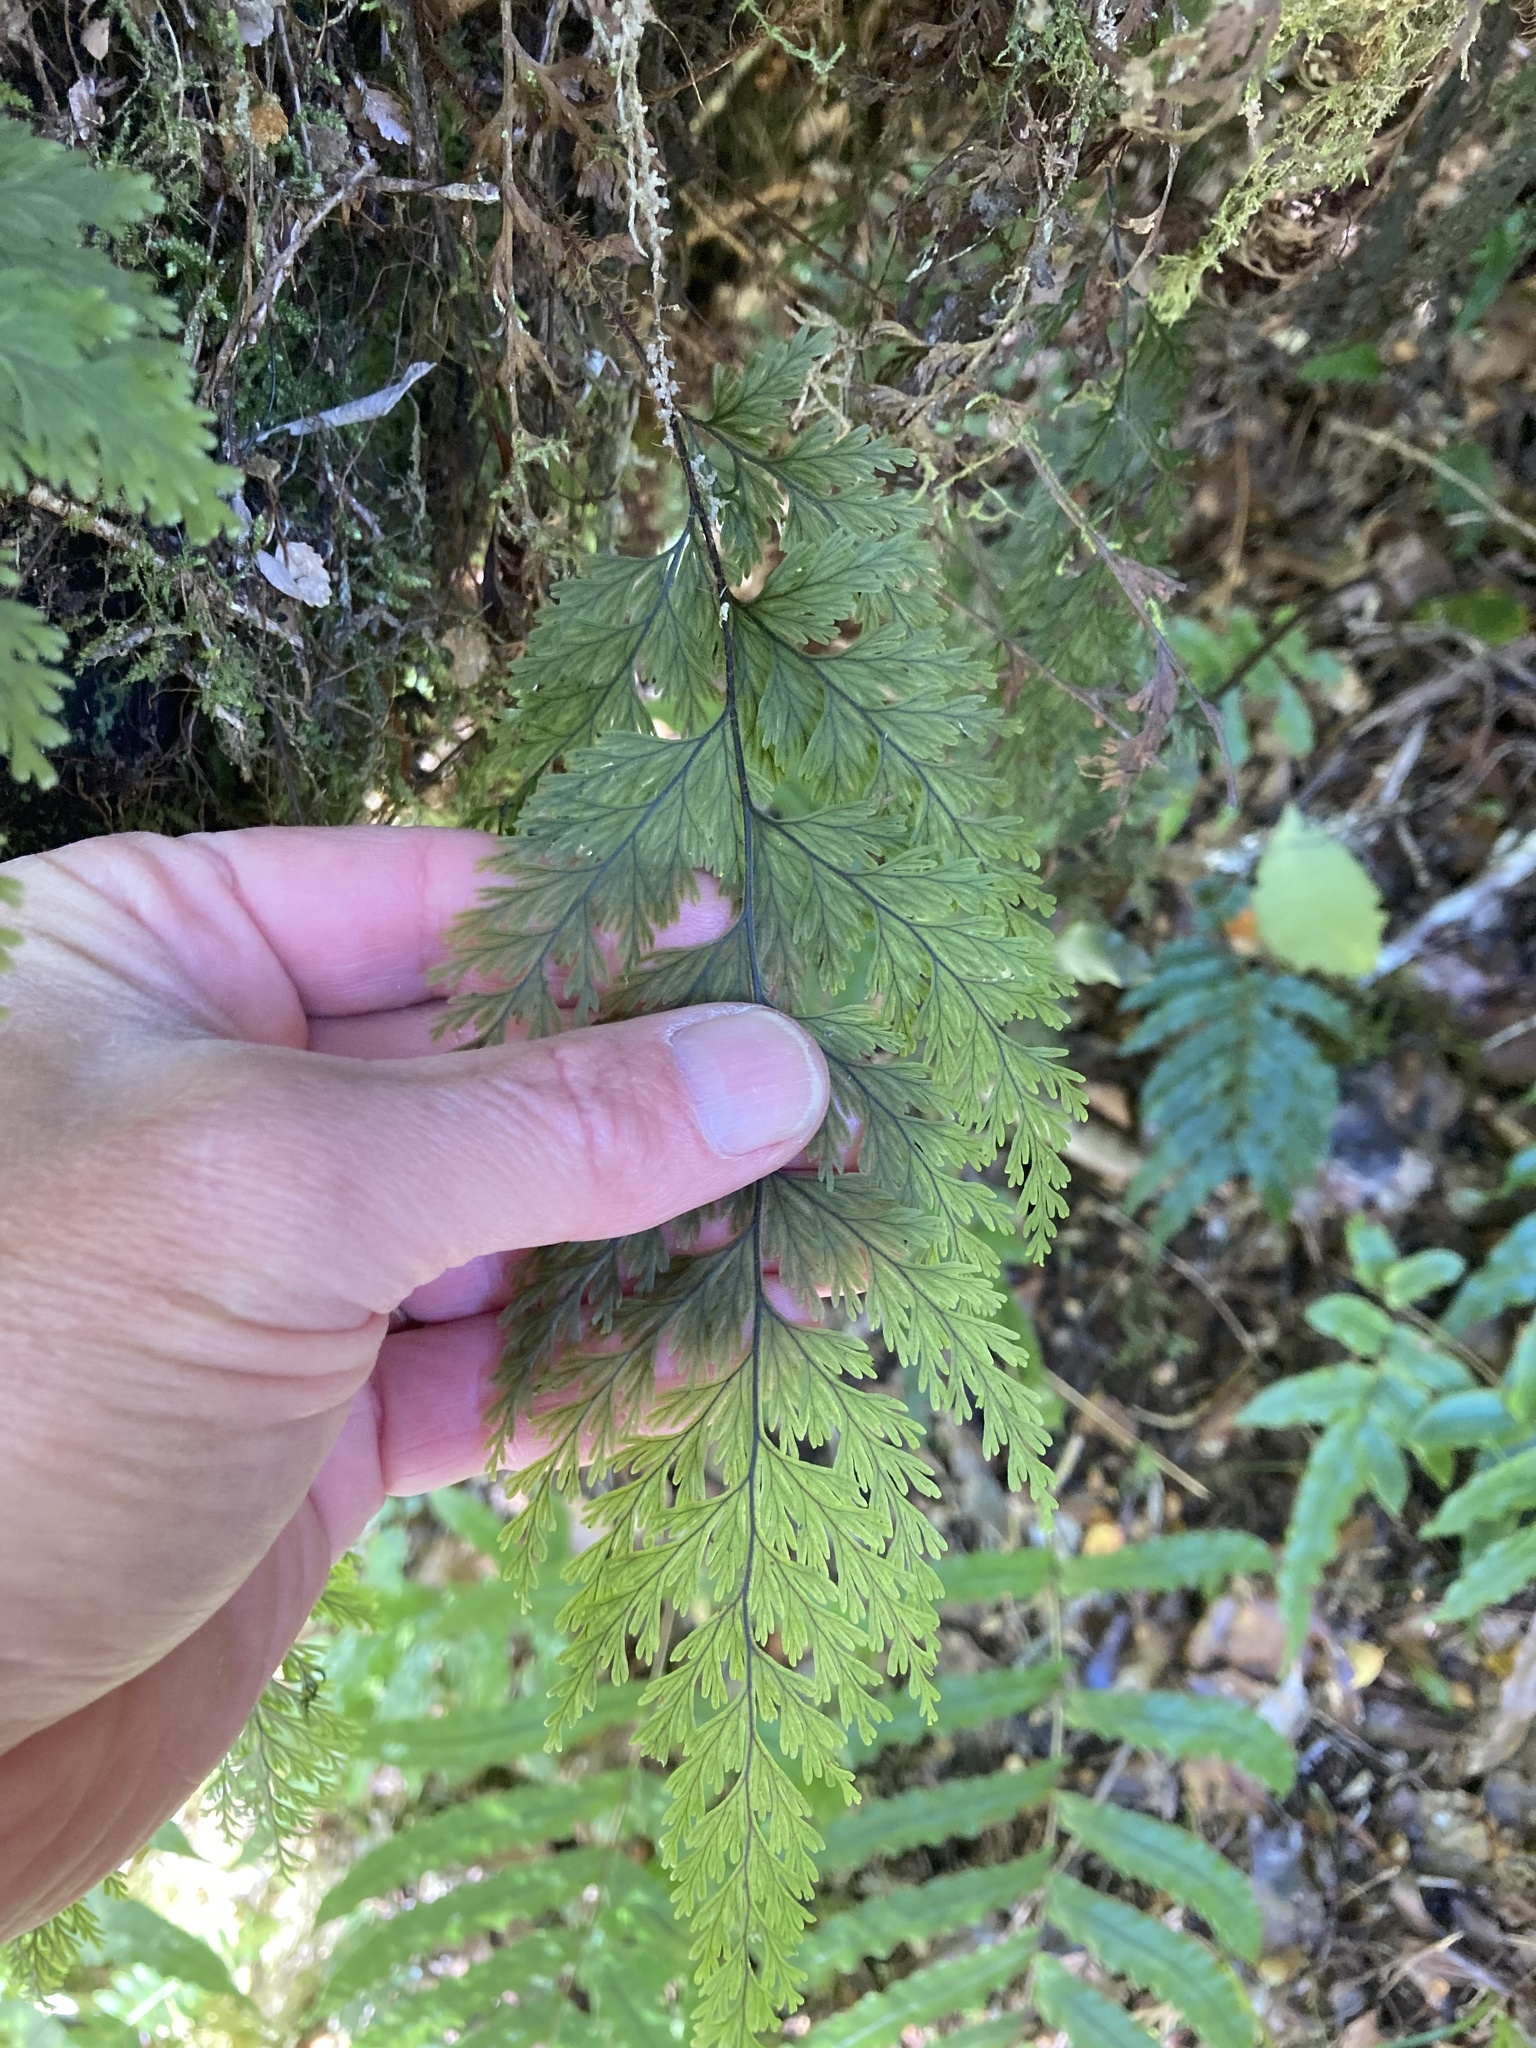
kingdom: Plantae
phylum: Tracheophyta
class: Polypodiopsida
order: Hymenophyllales
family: Hymenophyllaceae
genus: Hymenophyllum
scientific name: Hymenophyllum scabrum
